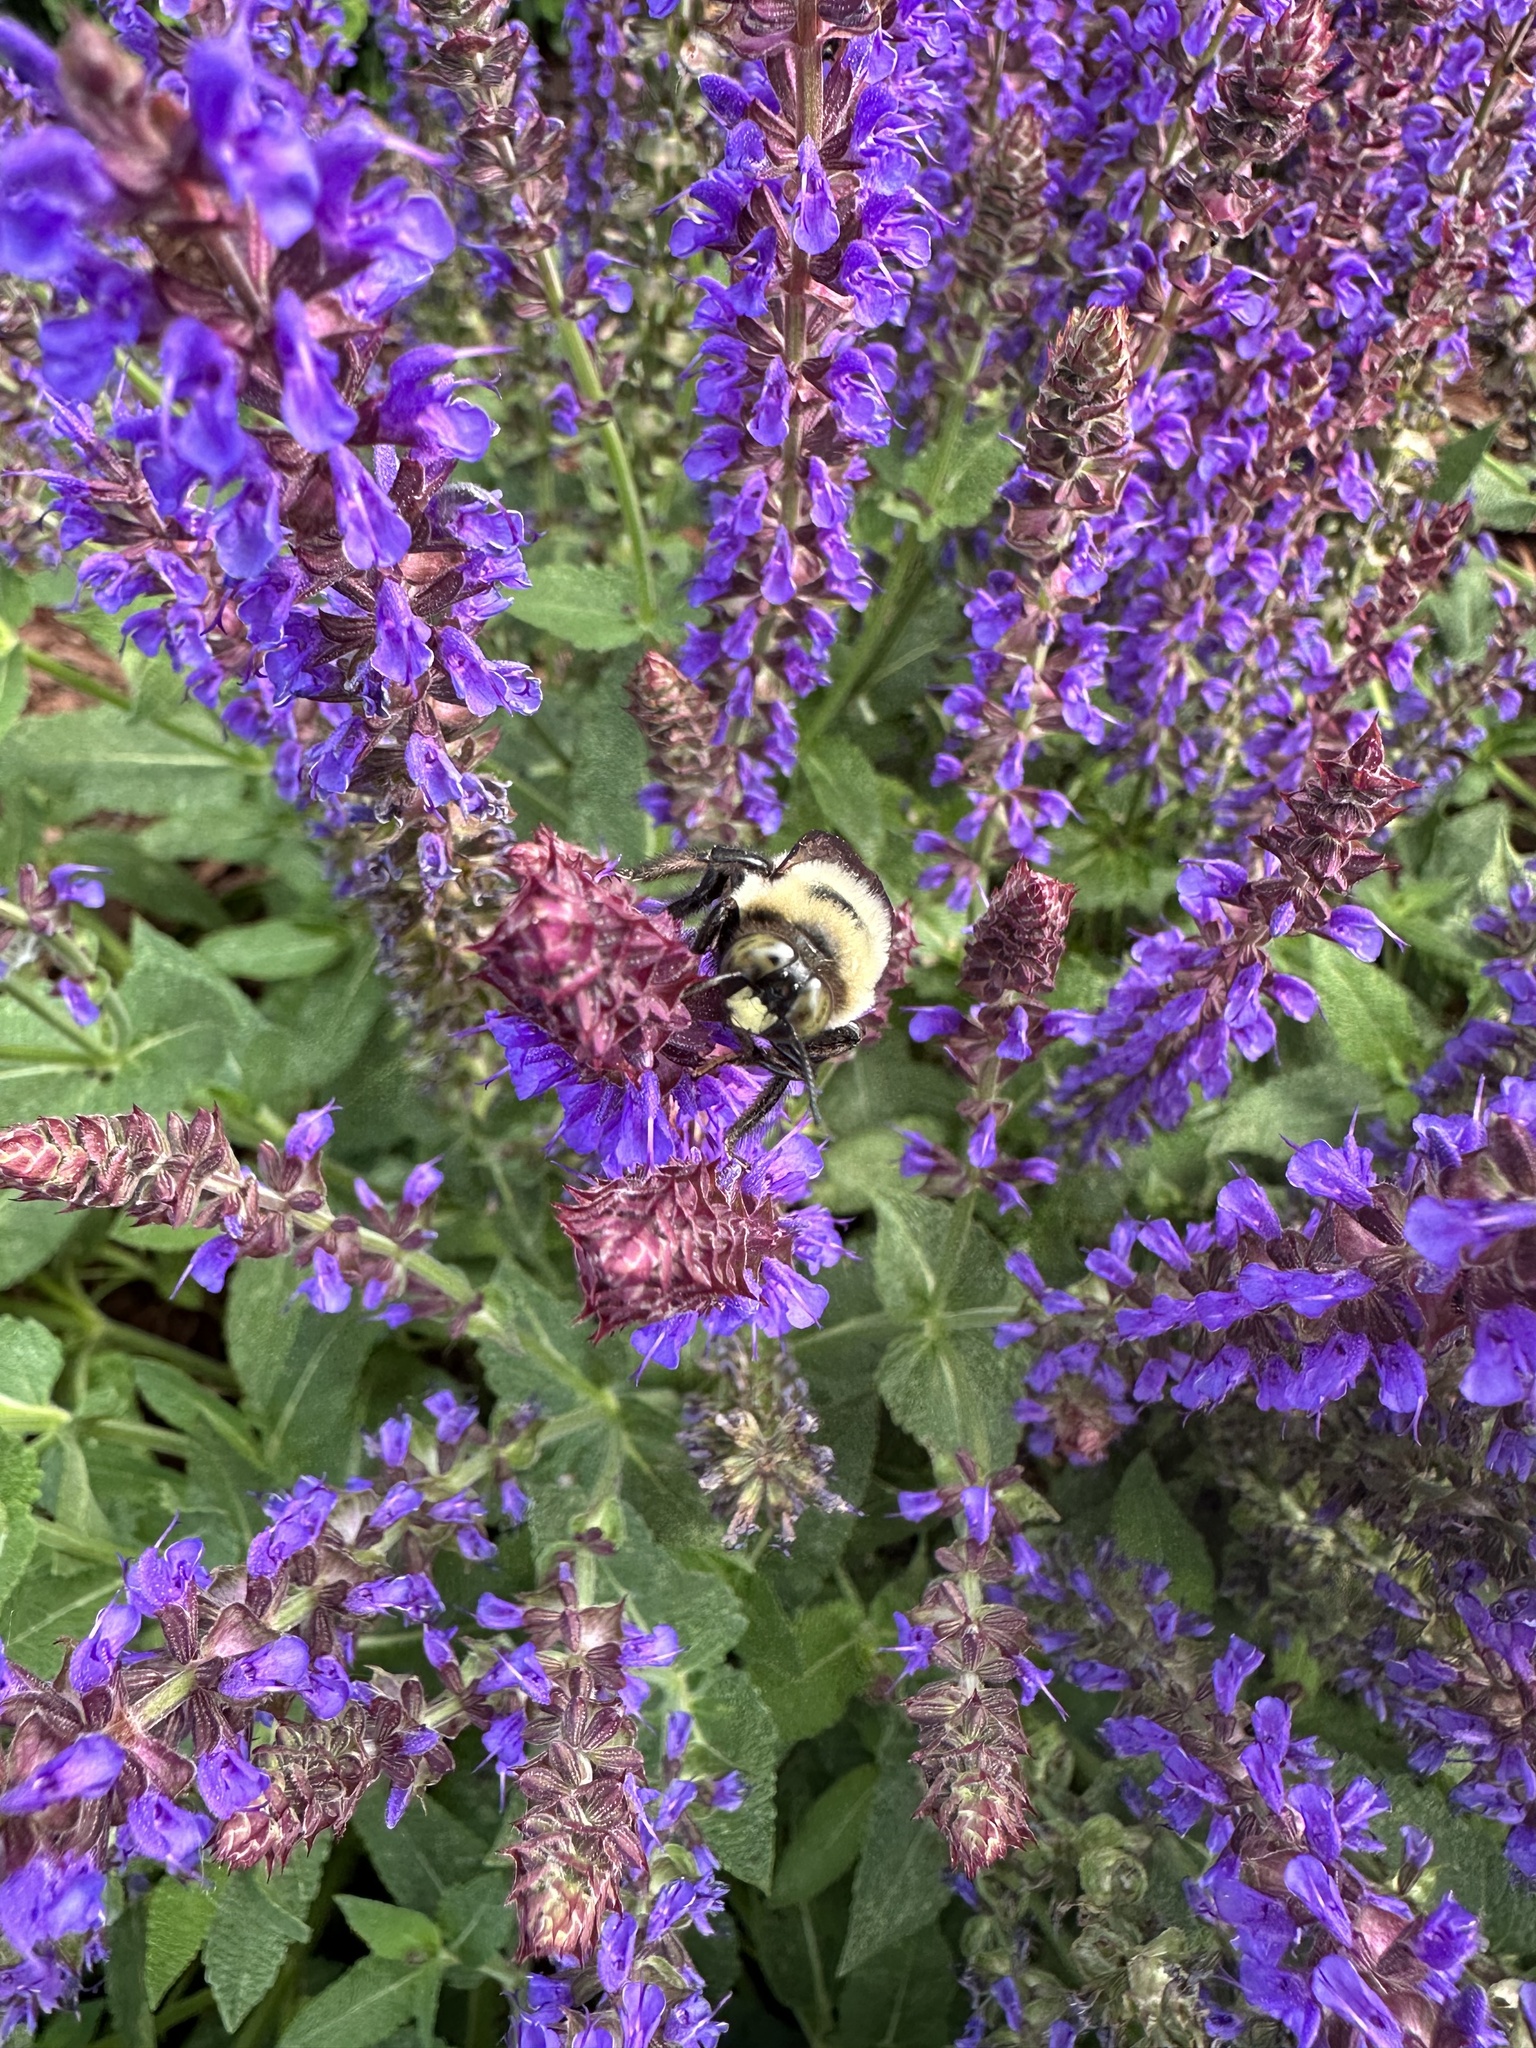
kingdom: Animalia
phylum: Arthropoda
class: Insecta
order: Hymenoptera
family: Apidae
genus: Xylocopa
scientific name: Xylocopa virginica
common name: Carpenter bee
